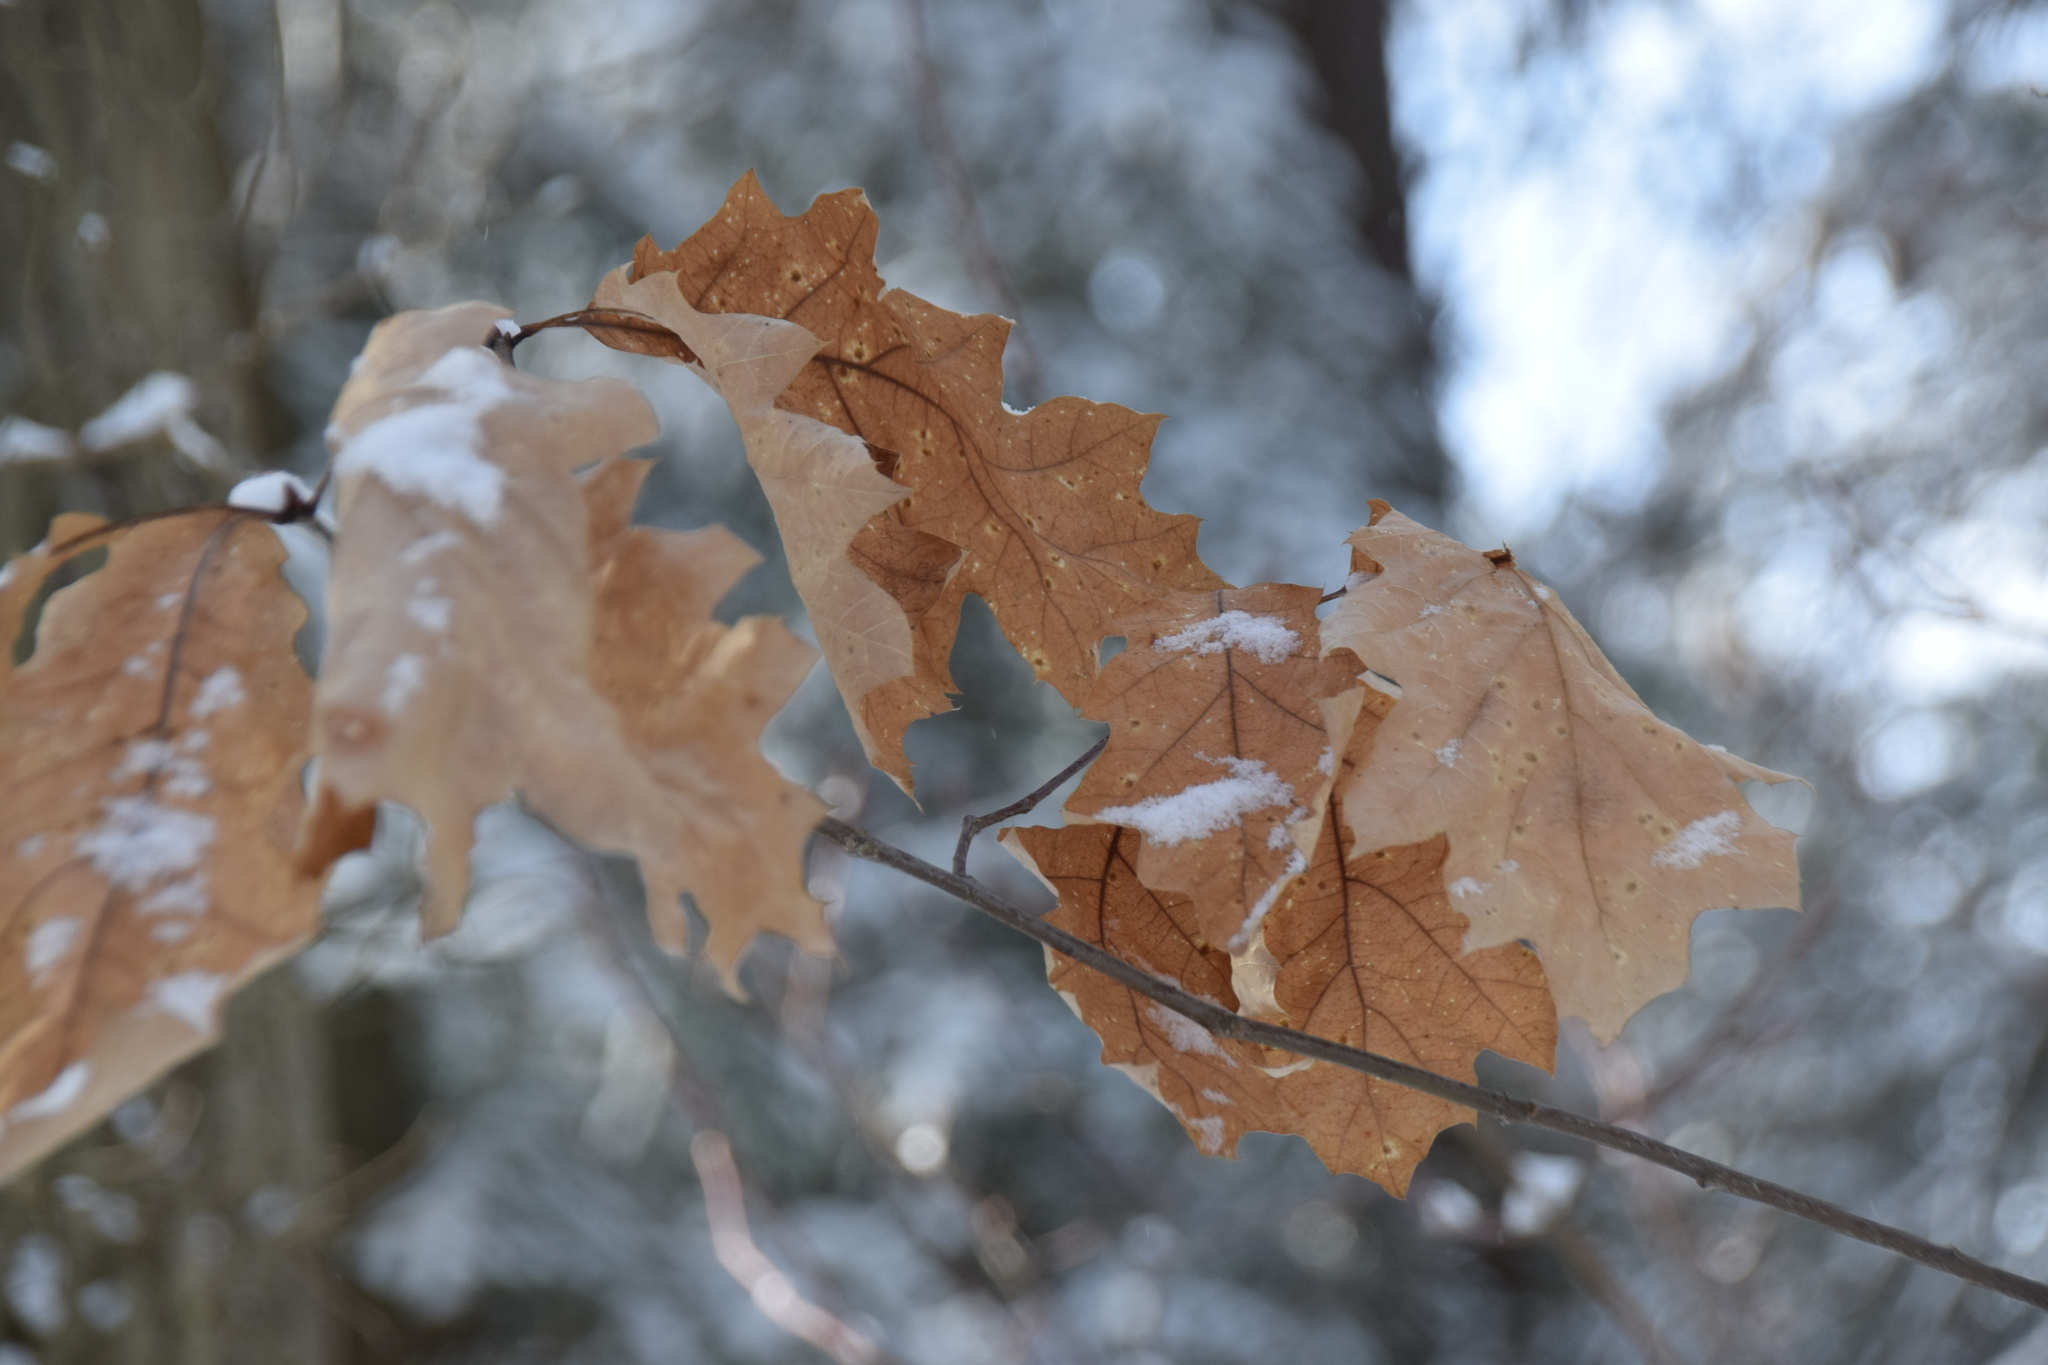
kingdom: Plantae
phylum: Tracheophyta
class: Magnoliopsida
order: Fagales
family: Fagaceae
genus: Quercus
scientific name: Quercus rubra
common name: Red oak
